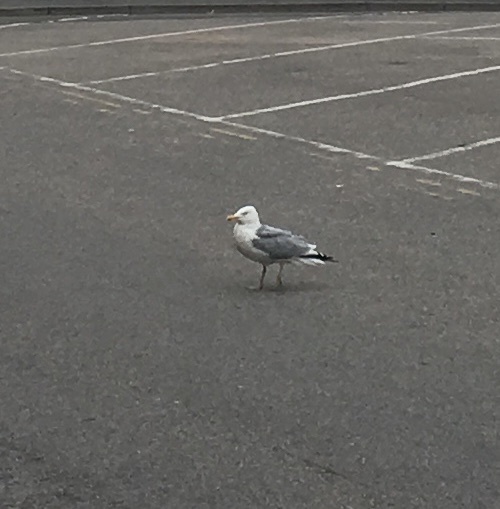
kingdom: Animalia
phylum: Chordata
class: Aves
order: Charadriiformes
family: Laridae
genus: Larus
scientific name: Larus argentatus
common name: Herring gull
